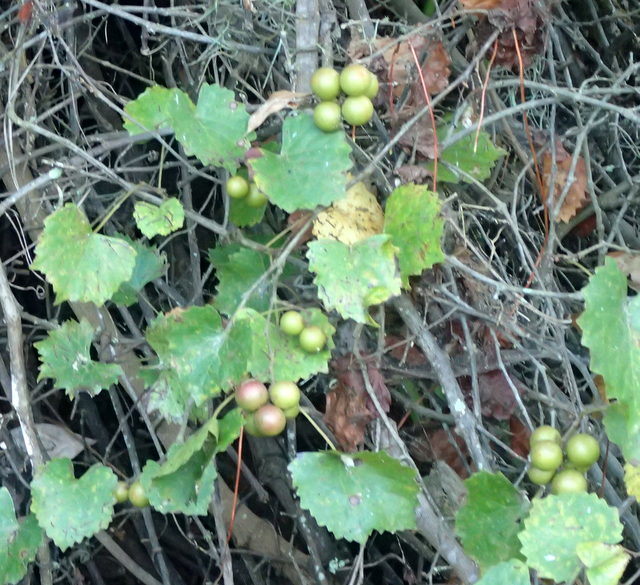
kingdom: Plantae
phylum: Tracheophyta
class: Magnoliopsida
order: Vitales
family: Vitaceae
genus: Vitis
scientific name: Vitis rotundifolia
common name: Muscadine grape
